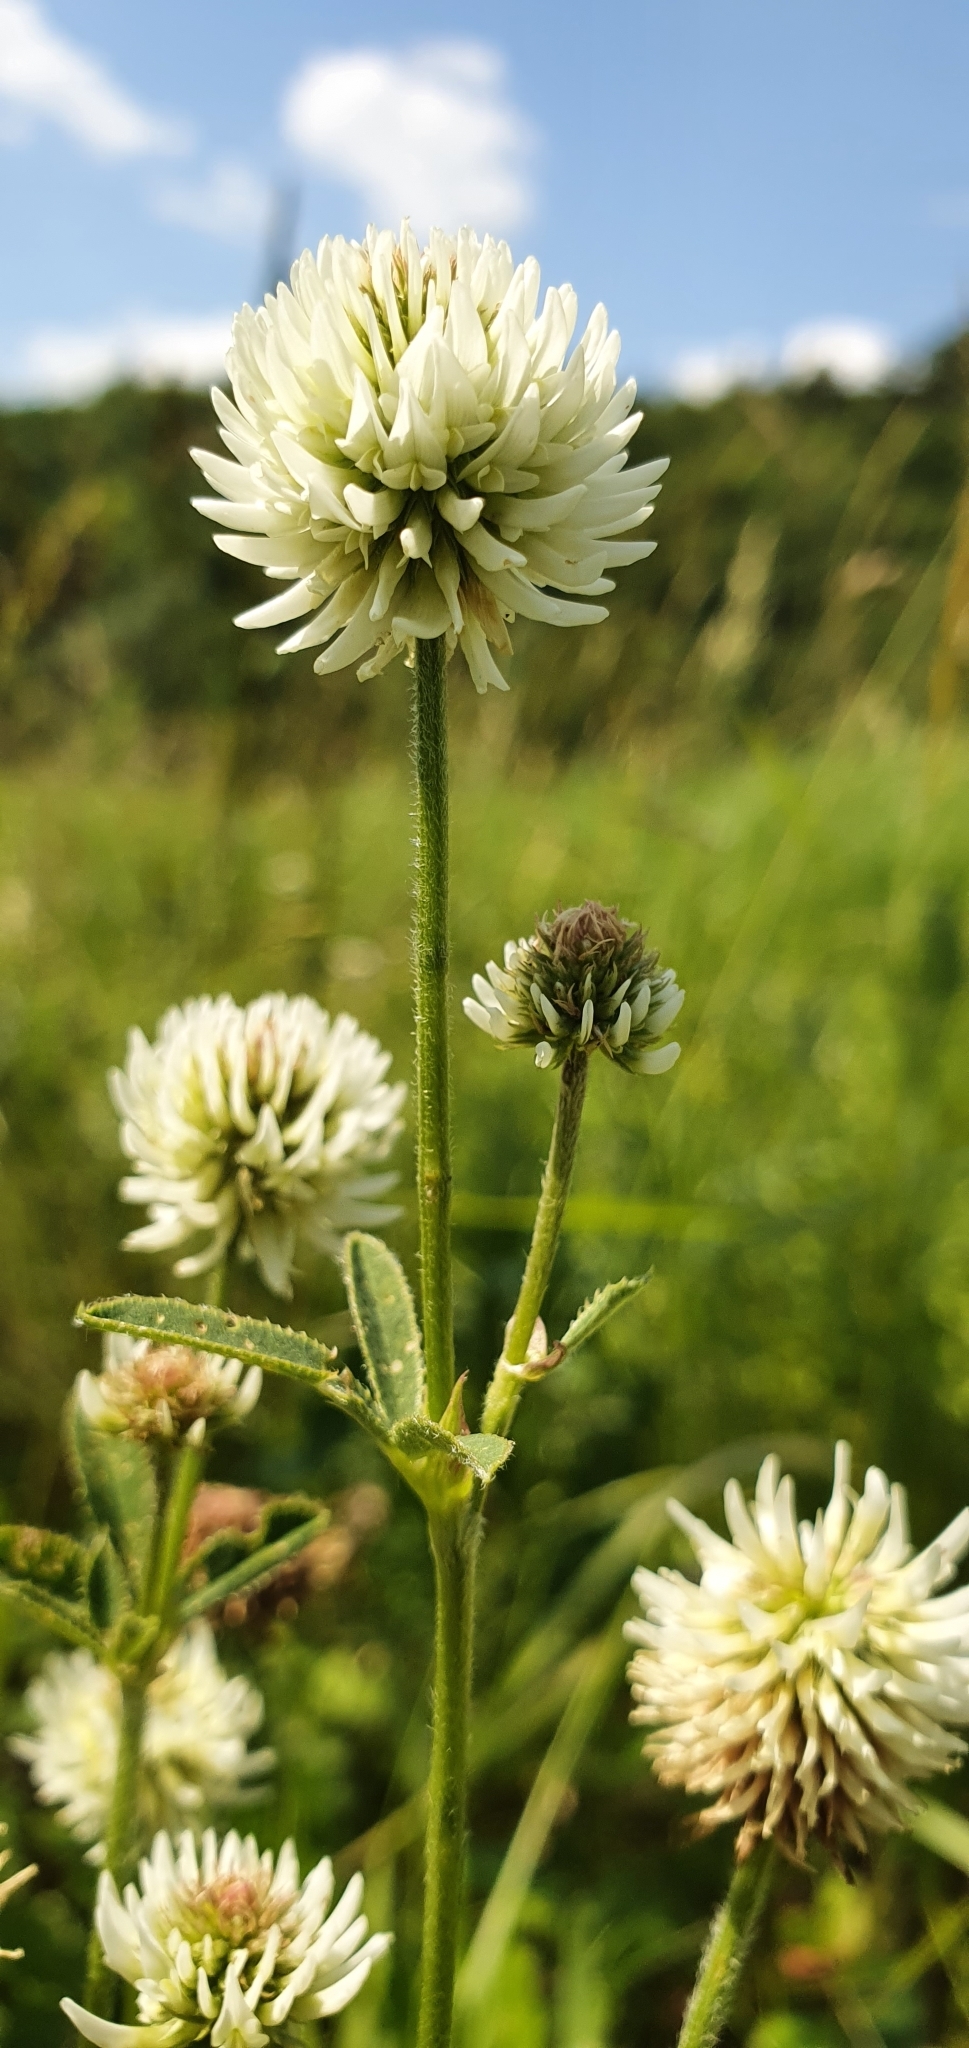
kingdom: Plantae
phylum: Tracheophyta
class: Magnoliopsida
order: Fabales
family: Fabaceae
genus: Trifolium
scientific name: Trifolium montanum
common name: Mountain clover
